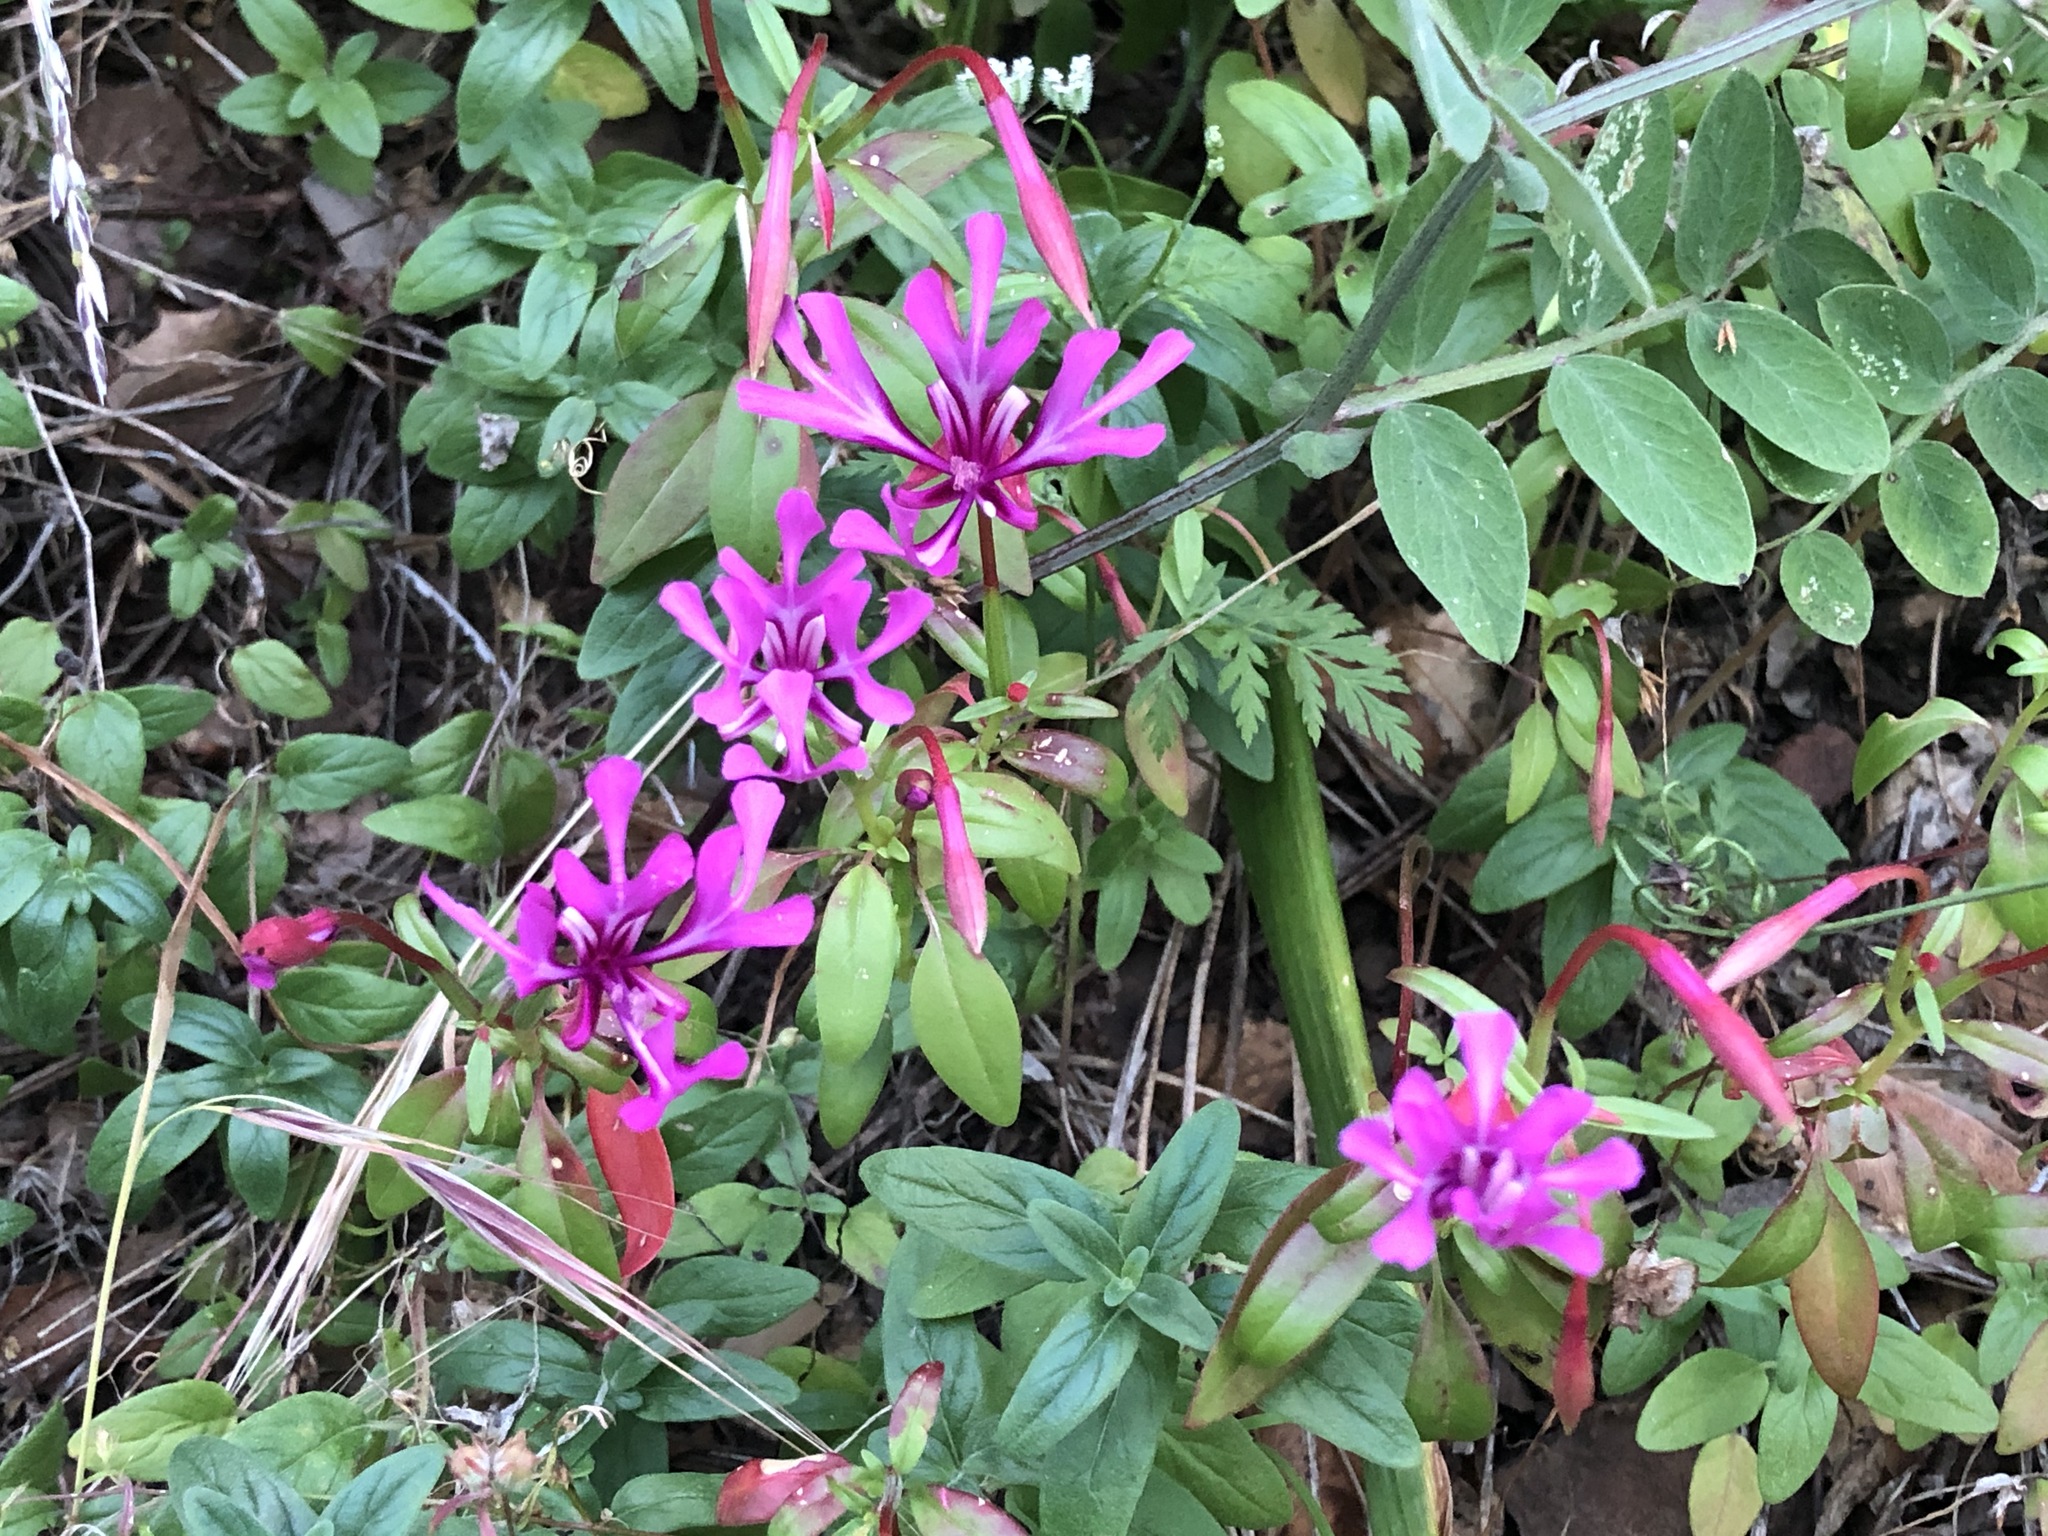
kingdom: Plantae
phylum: Tracheophyta
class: Magnoliopsida
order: Myrtales
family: Onagraceae
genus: Clarkia
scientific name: Clarkia concinna
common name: Red-ribbons
